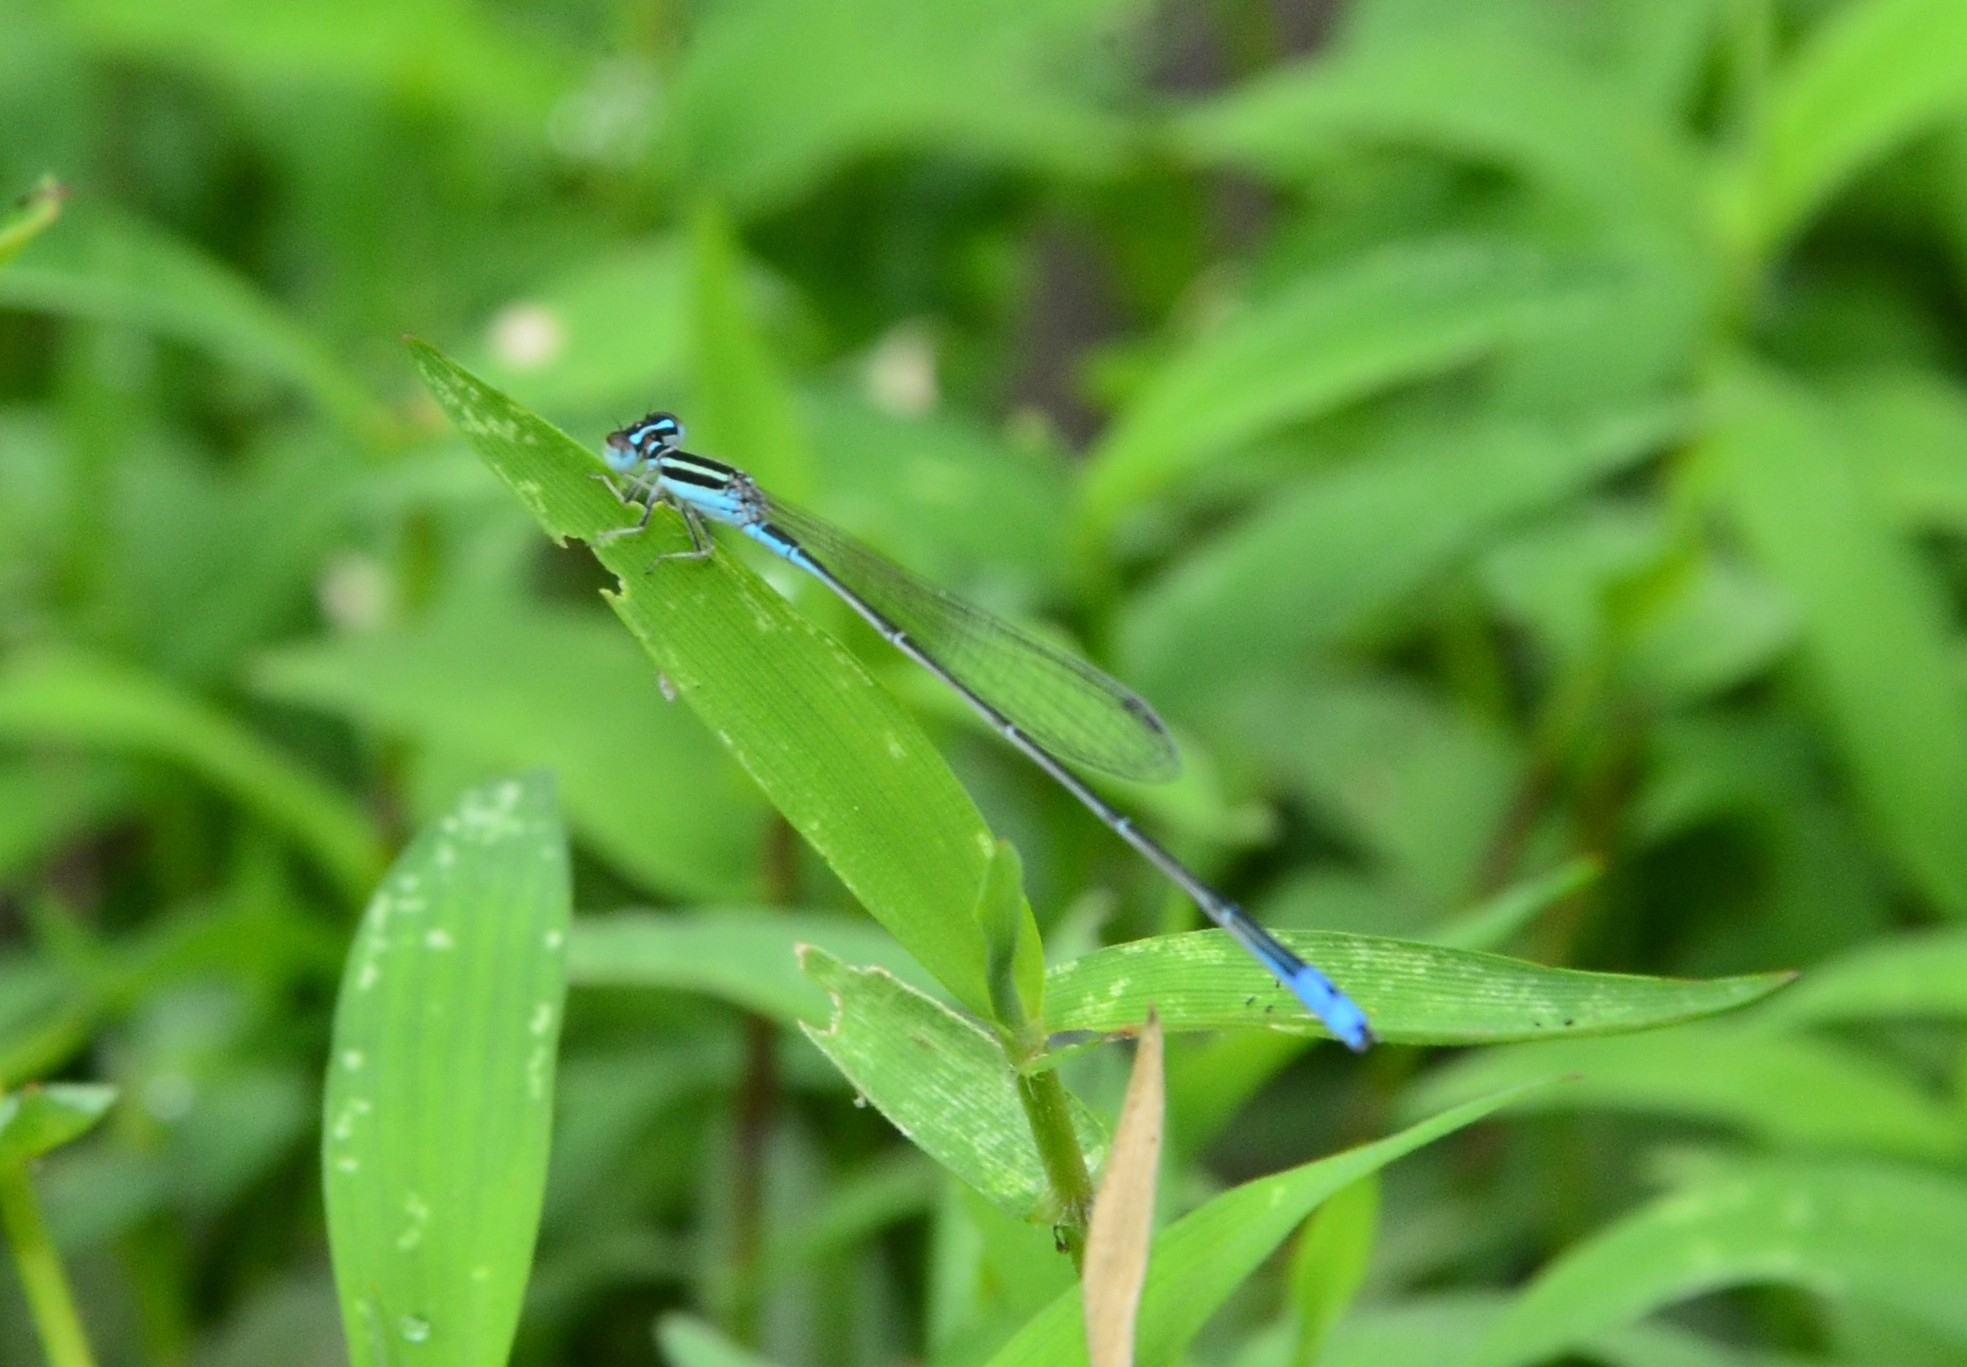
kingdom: Animalia
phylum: Arthropoda
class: Insecta
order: Odonata
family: Coenagrionidae
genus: Aciagrion
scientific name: Aciagrion occidentale
